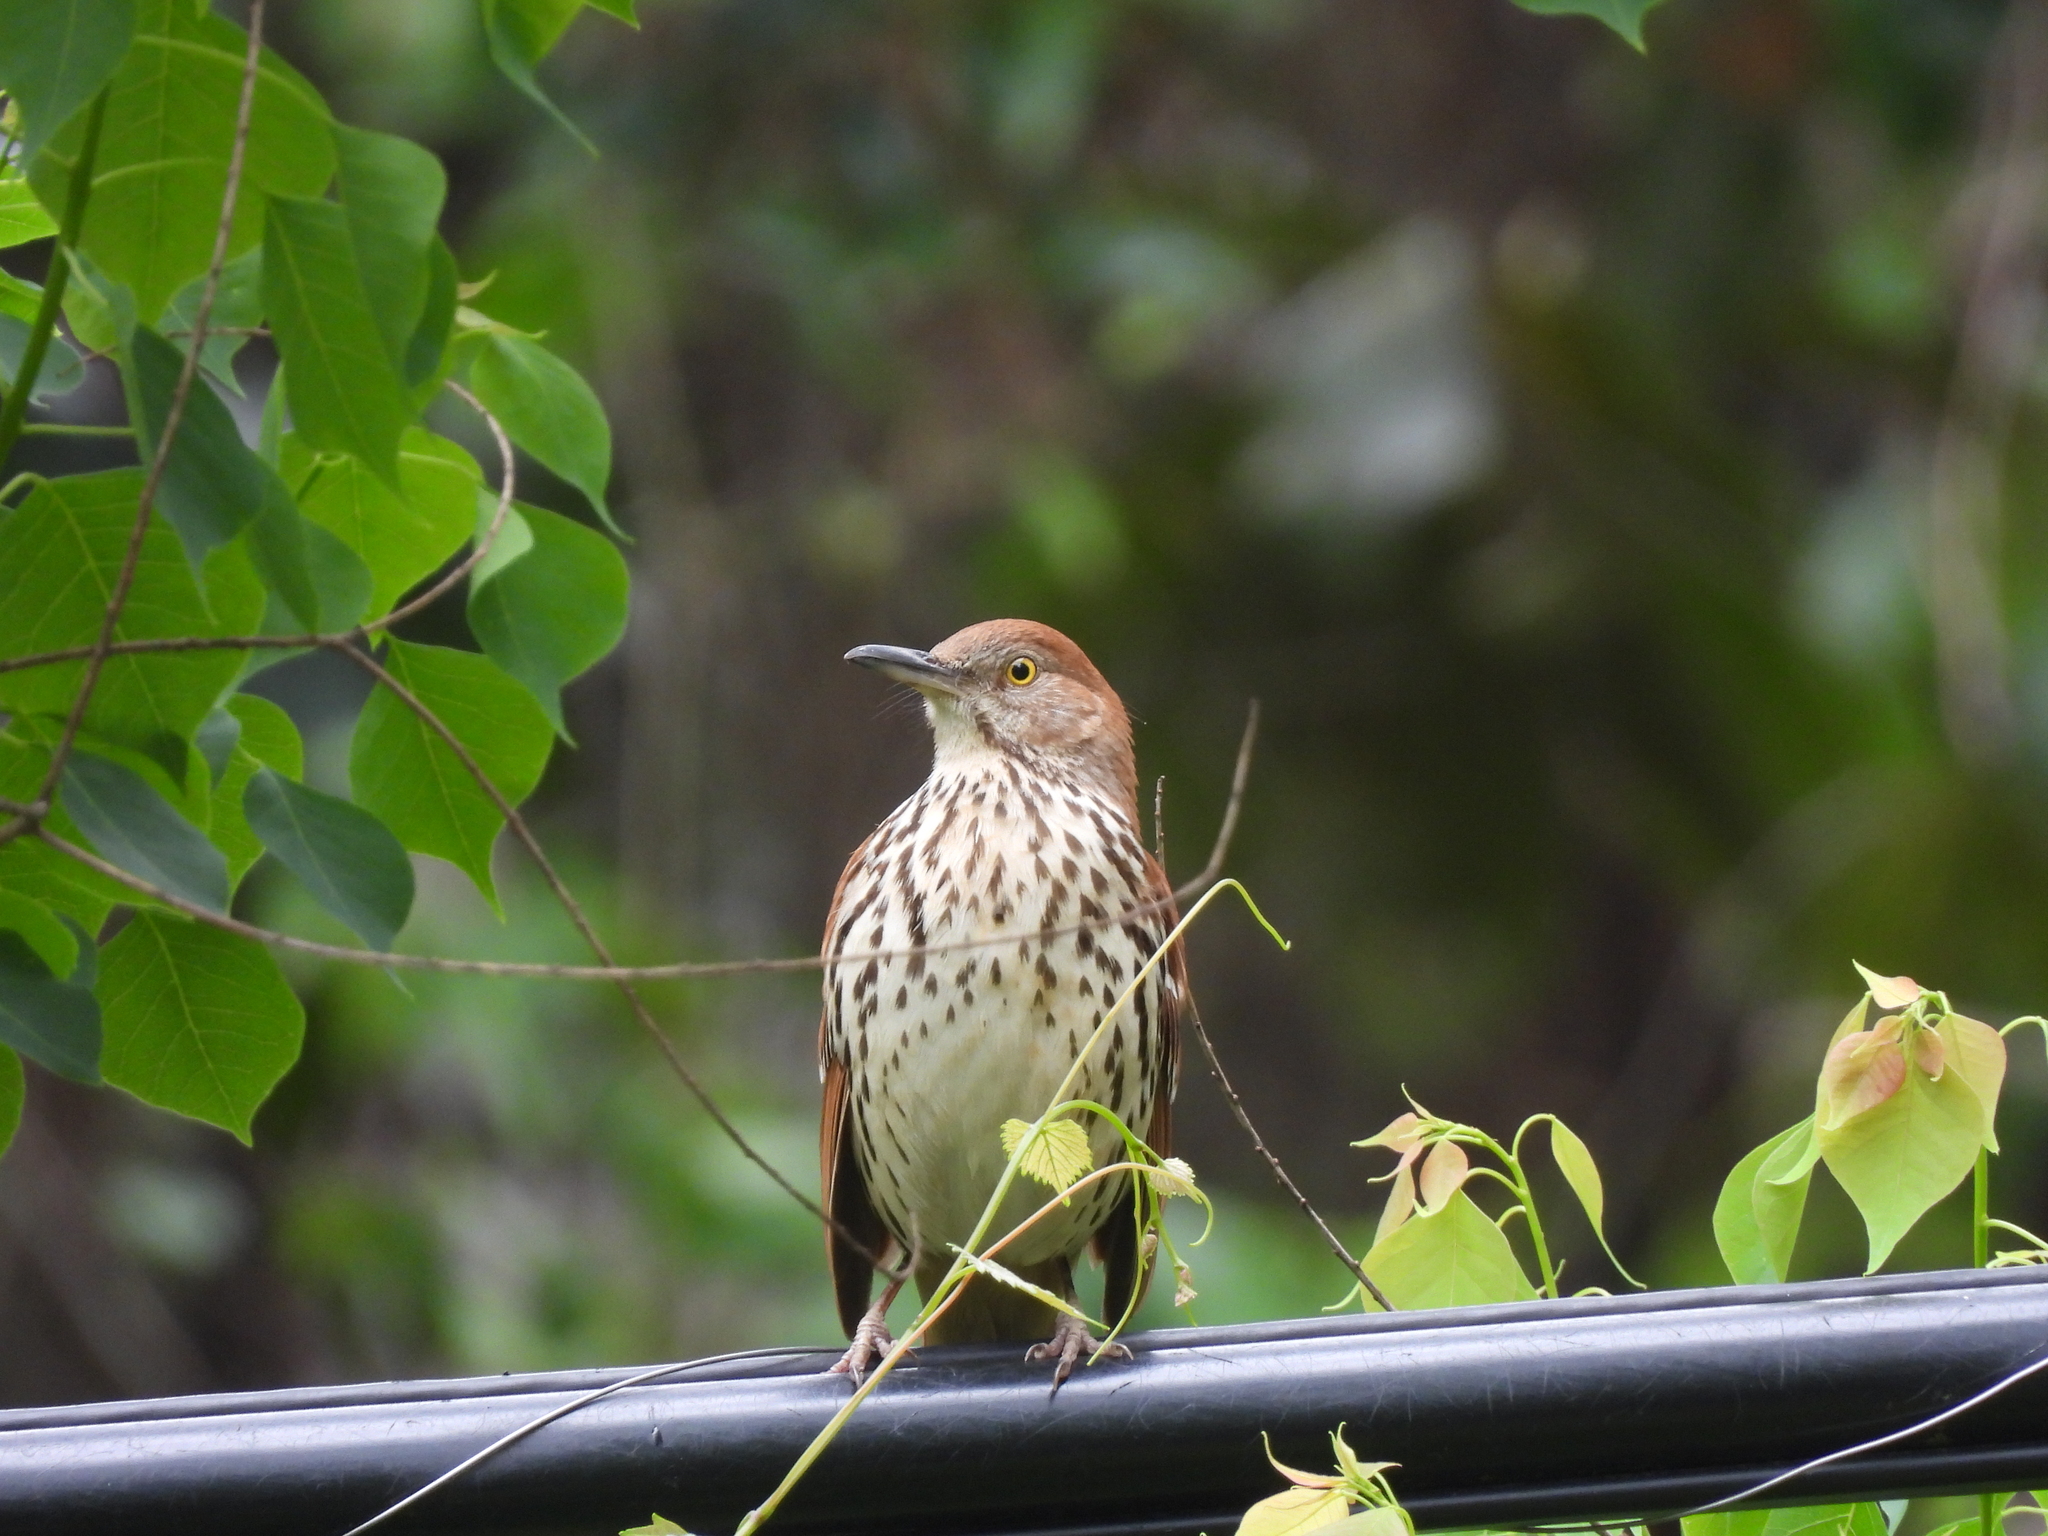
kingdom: Animalia
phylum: Chordata
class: Aves
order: Passeriformes
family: Mimidae
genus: Toxostoma
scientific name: Toxostoma rufum
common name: Brown thrasher
